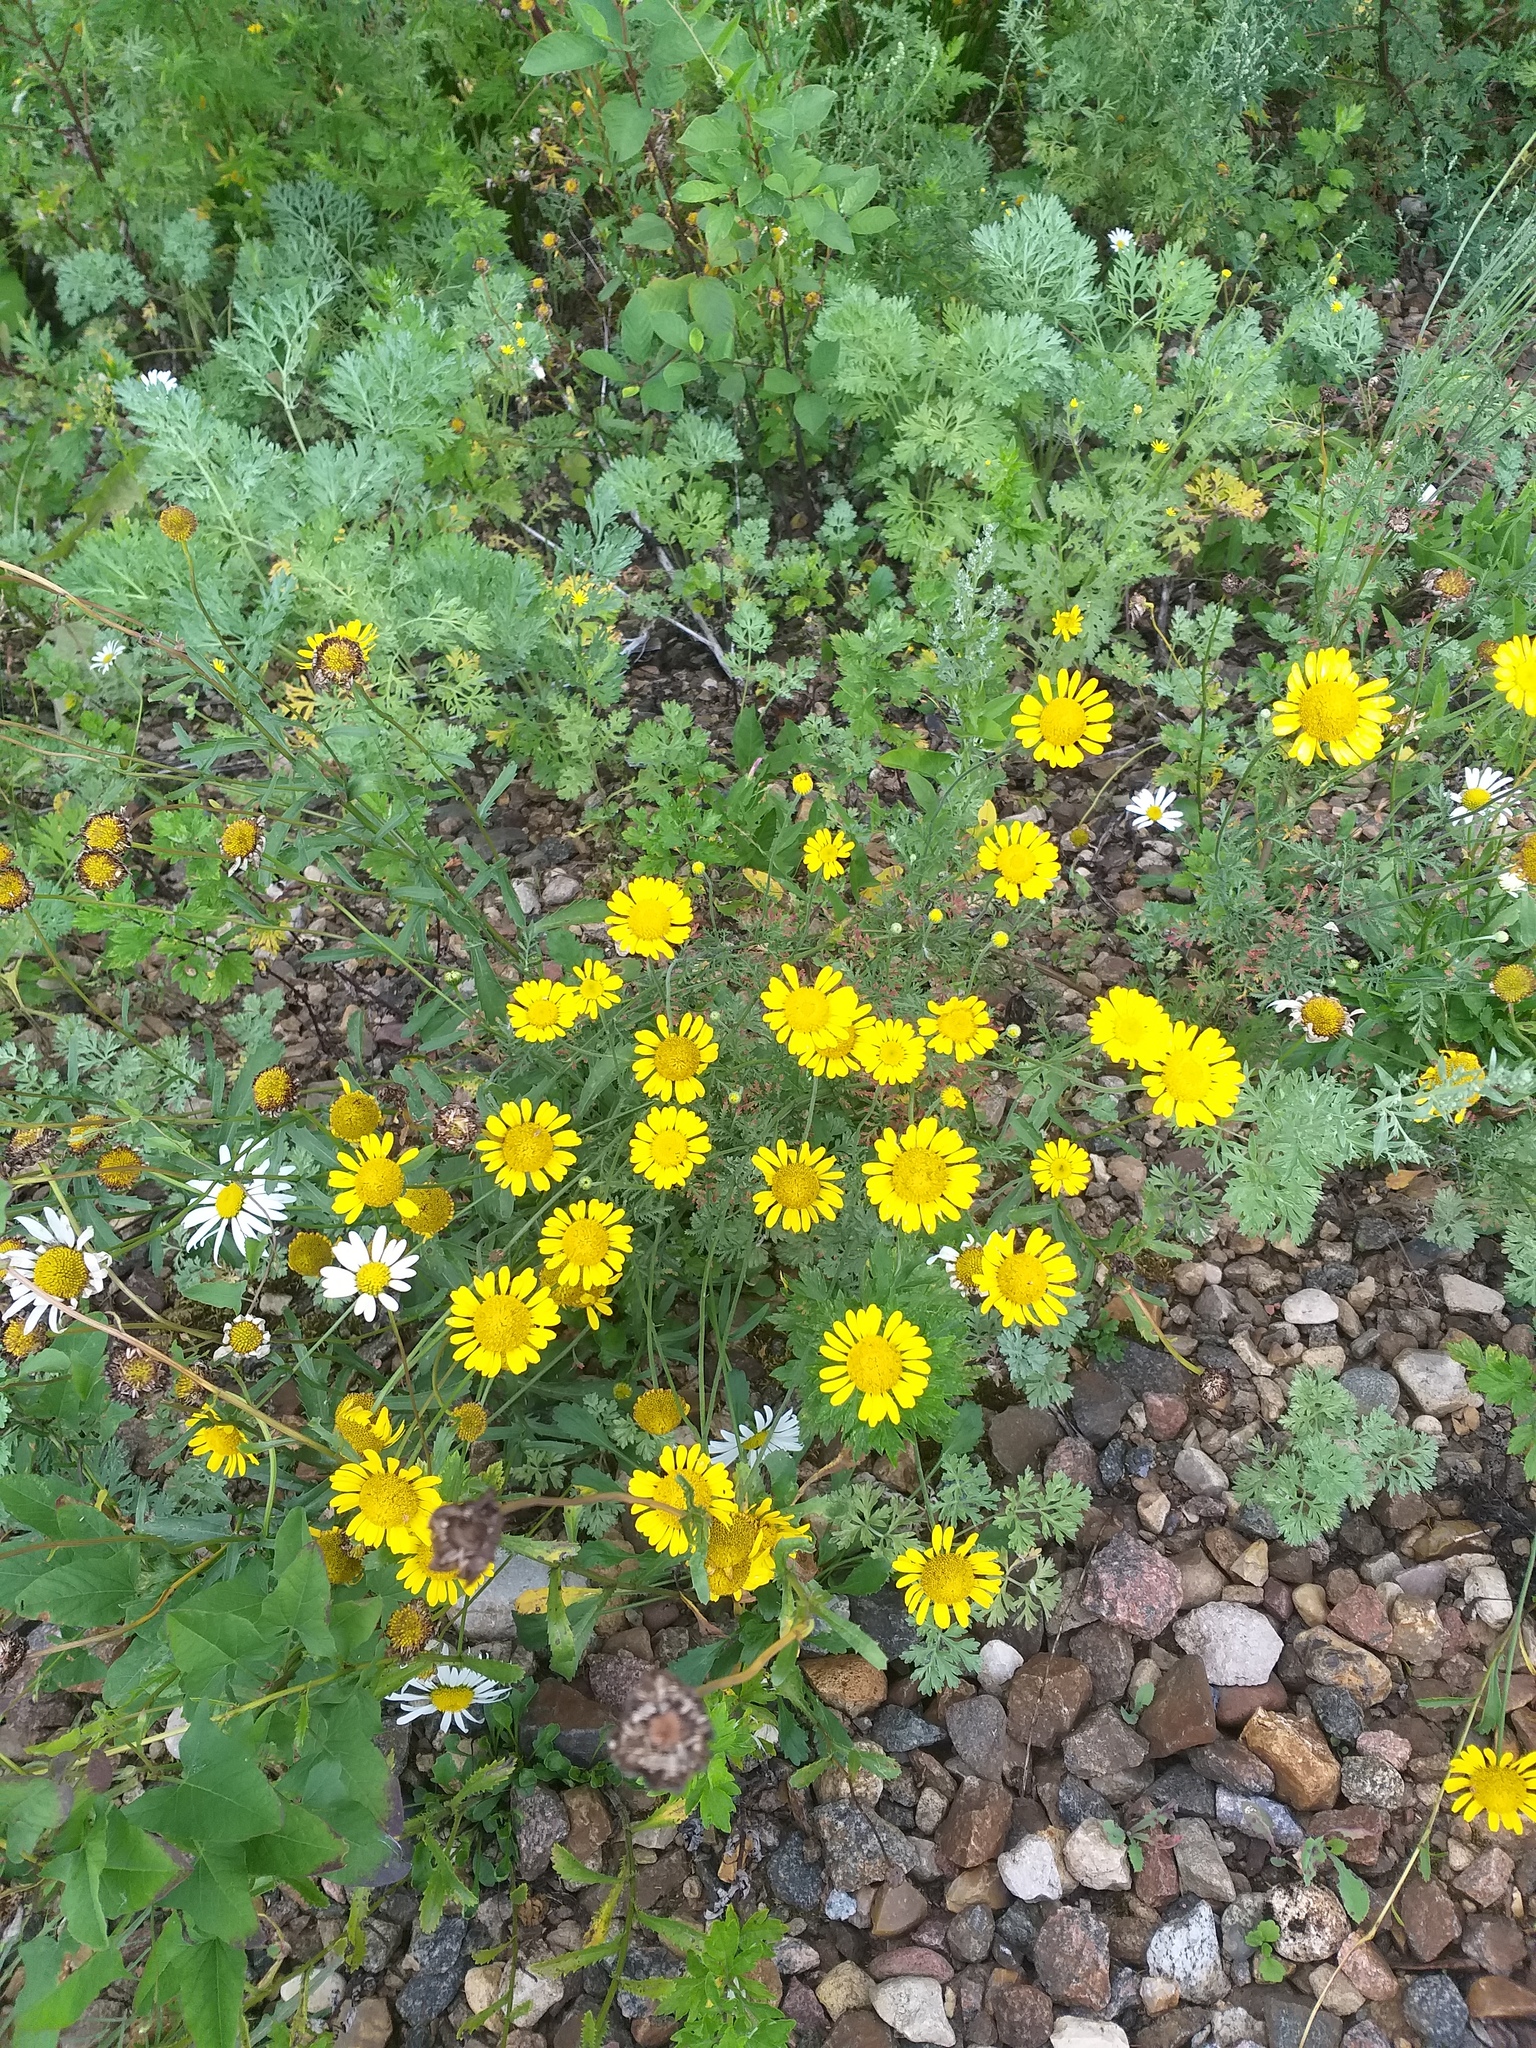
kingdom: Plantae
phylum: Tracheophyta
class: Magnoliopsida
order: Asterales
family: Asteraceae
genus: Cota
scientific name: Cota tinctoria
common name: Golden chamomile
